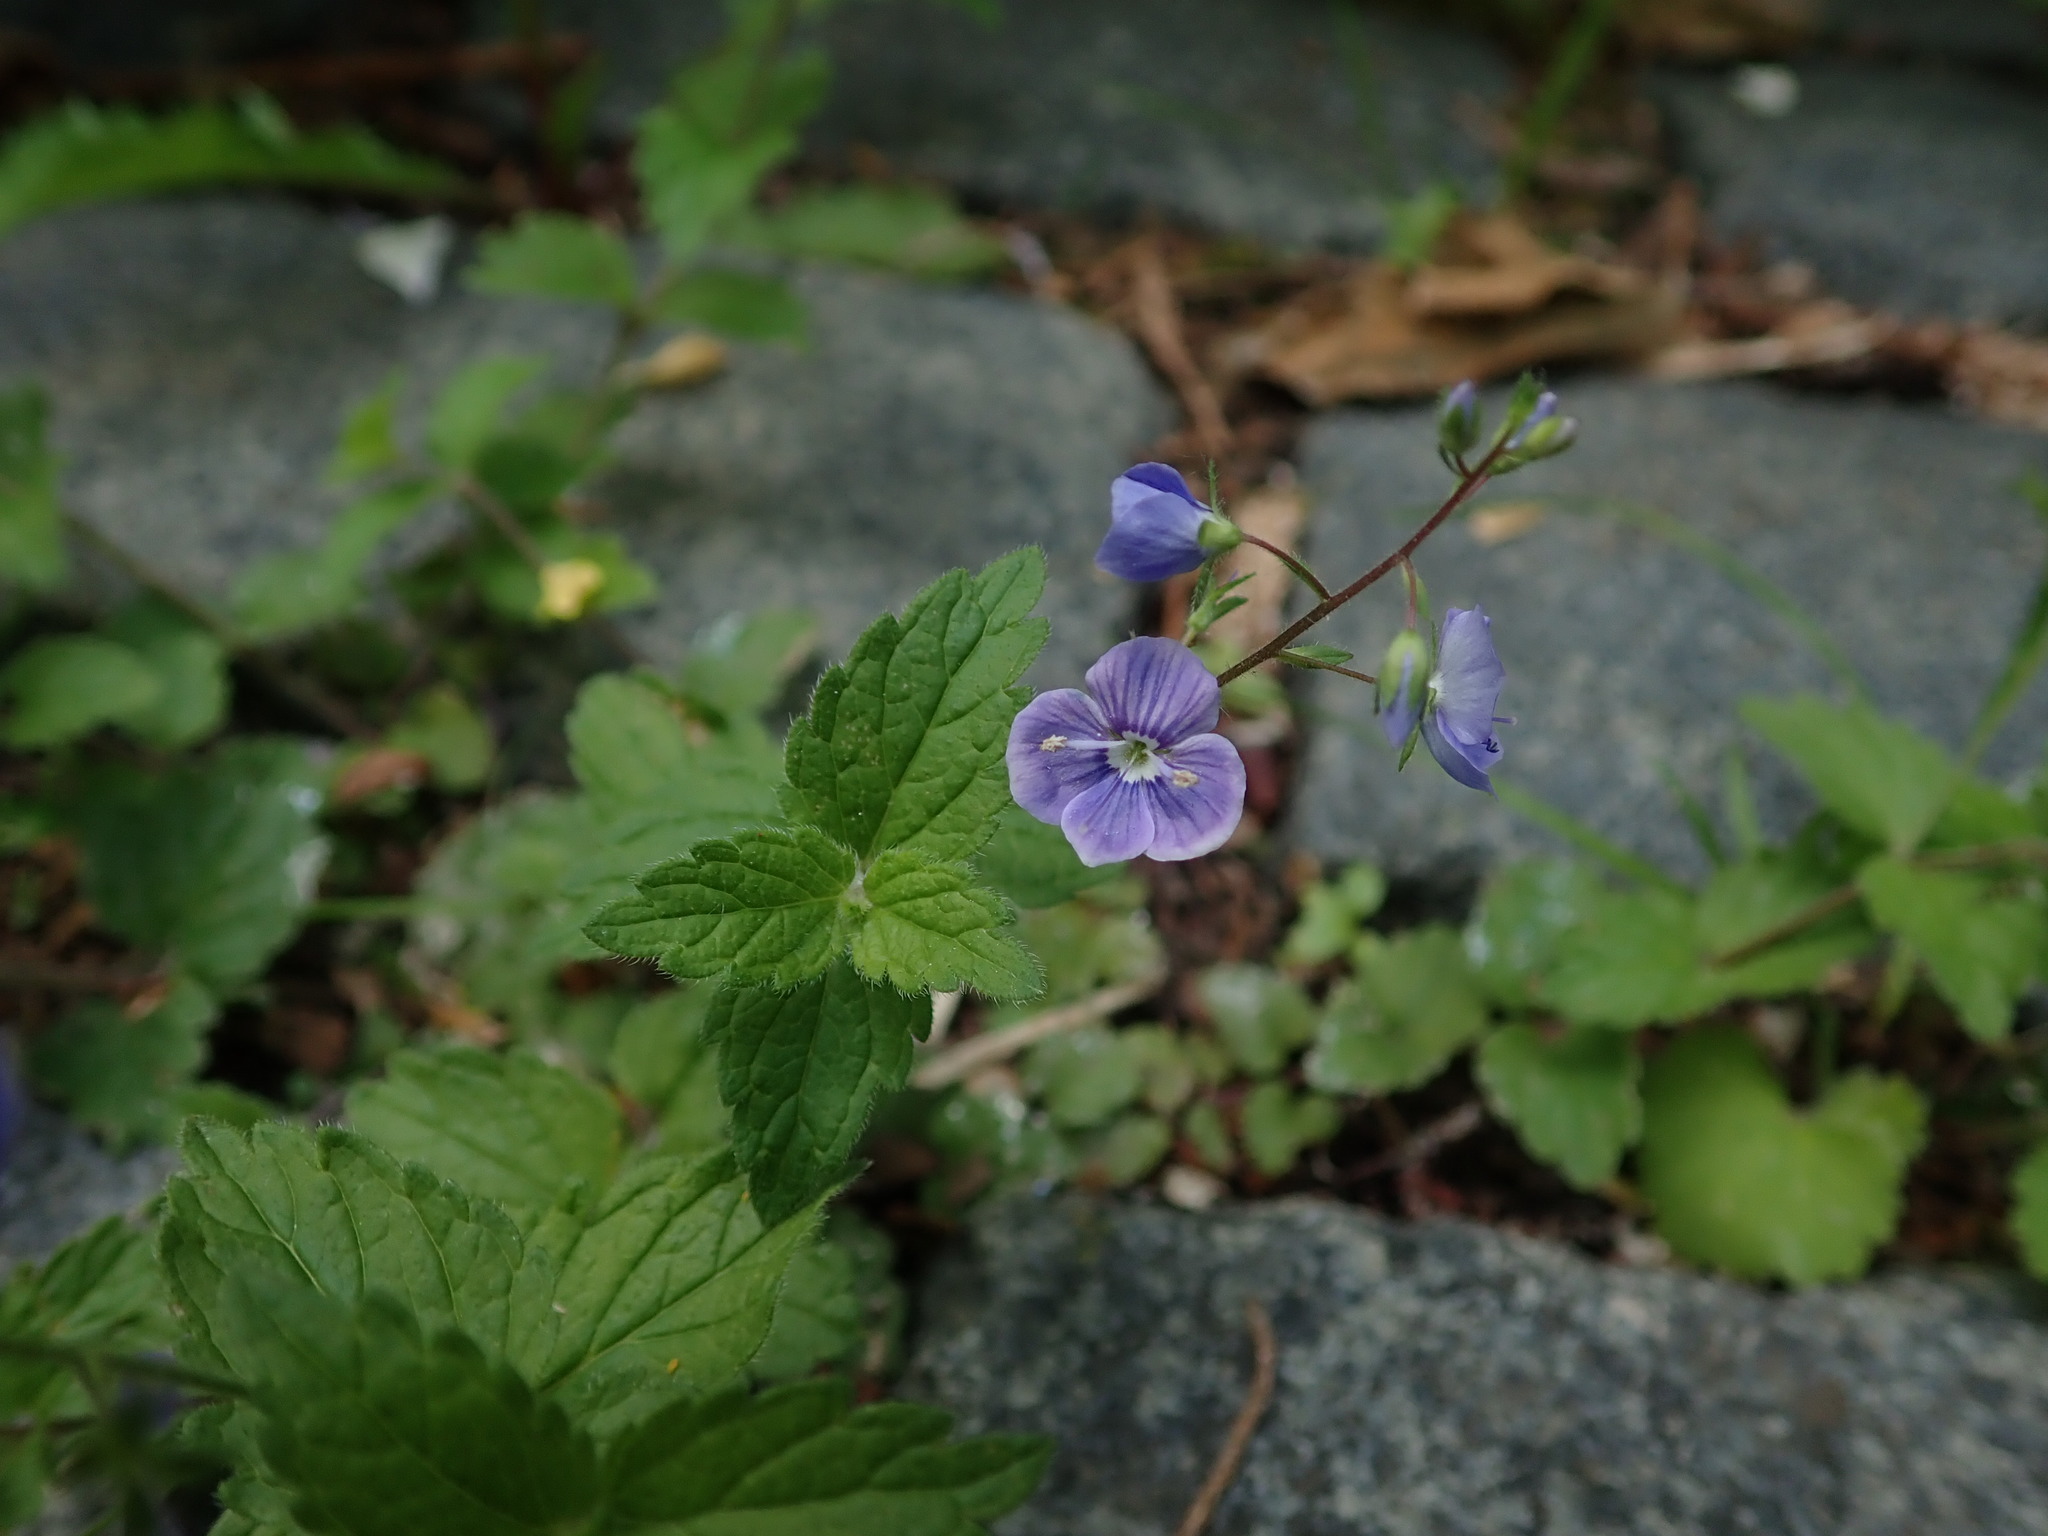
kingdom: Plantae
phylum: Tracheophyta
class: Magnoliopsida
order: Lamiales
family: Plantaginaceae
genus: Veronica
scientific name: Veronica chamaedrys
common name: Germander speedwell
